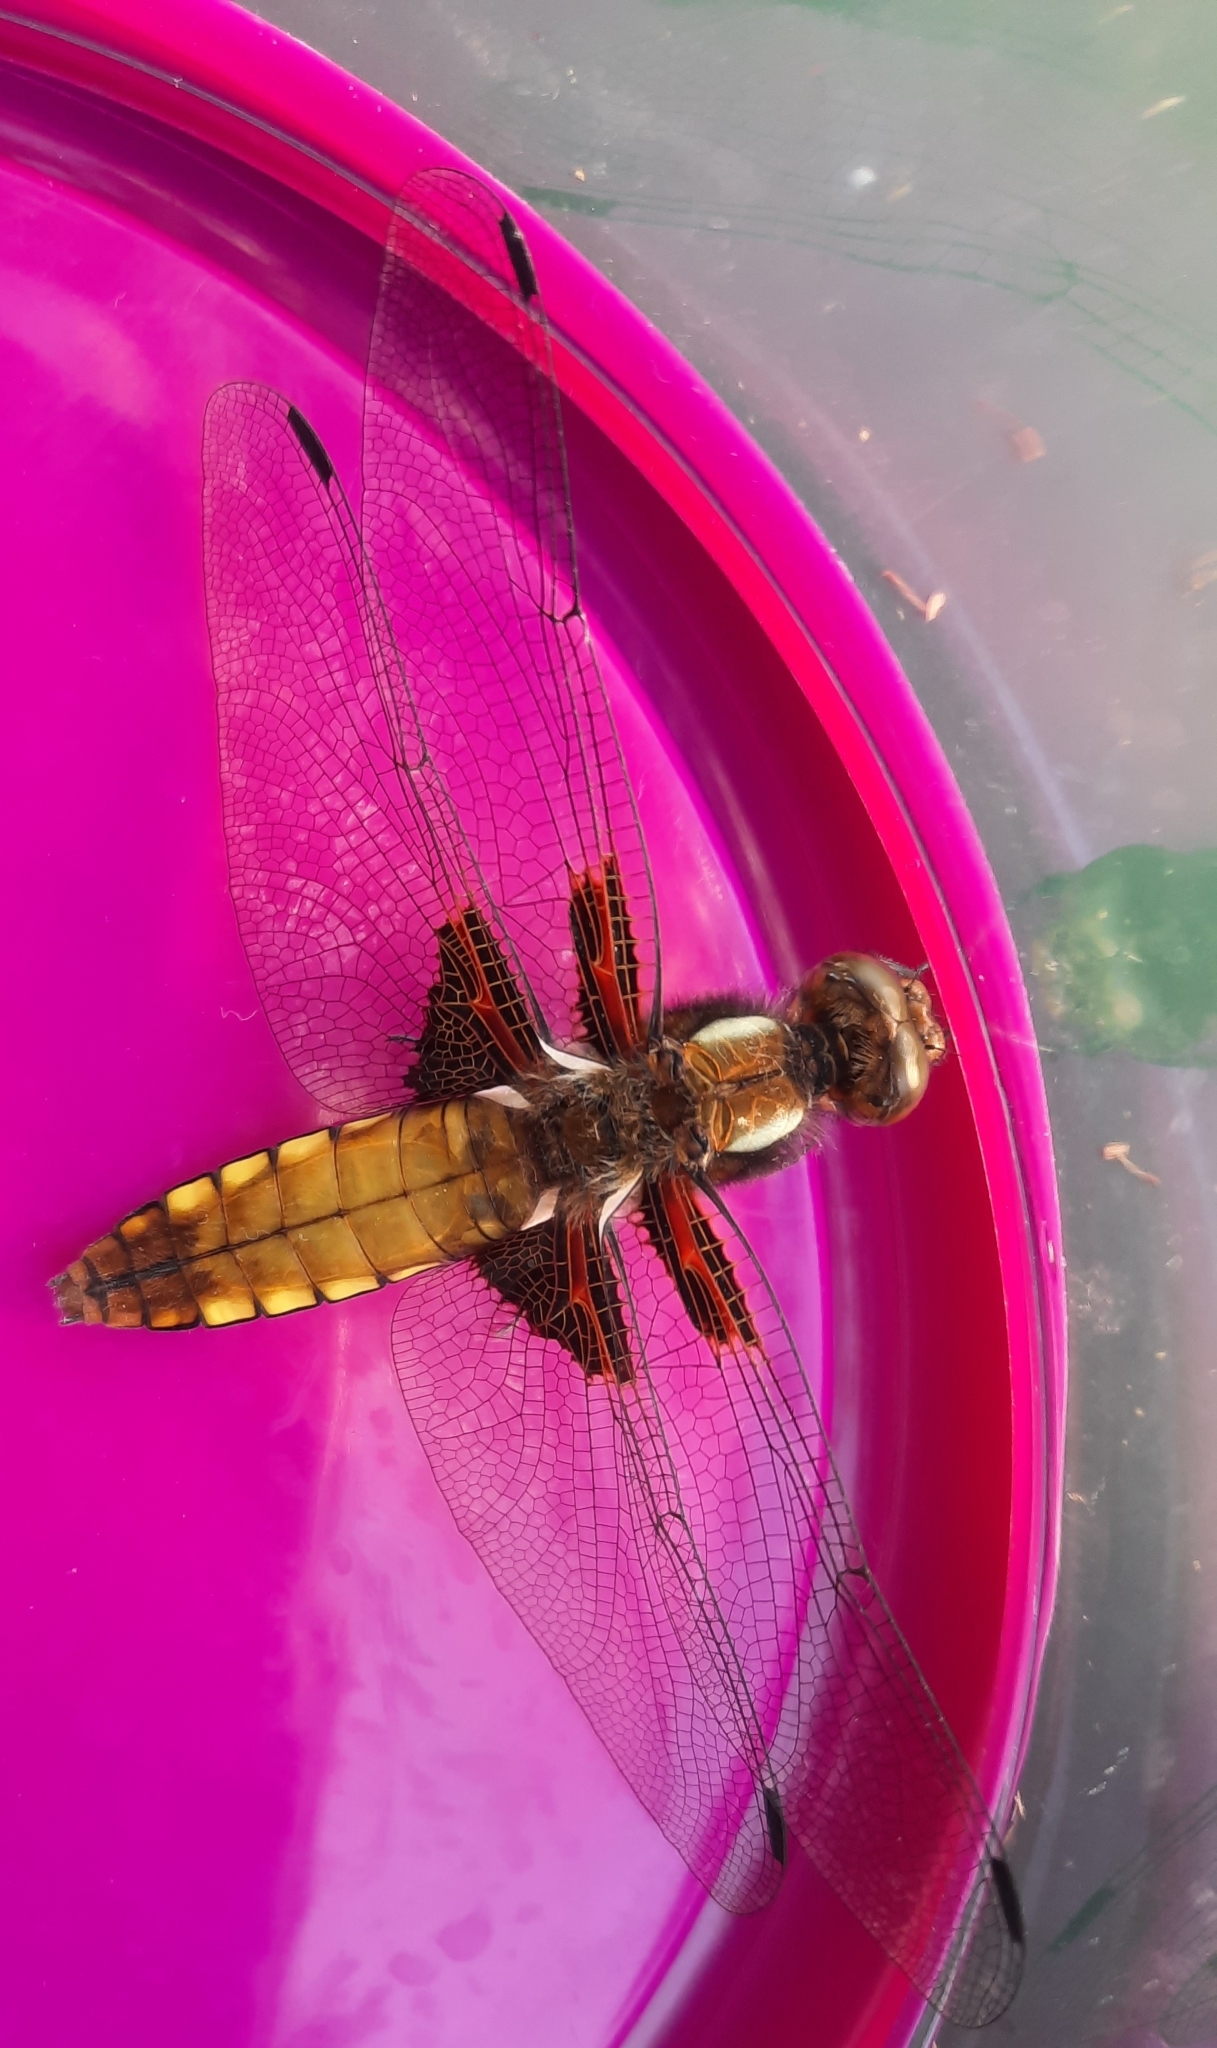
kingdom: Animalia
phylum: Arthropoda
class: Insecta
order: Odonata
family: Libellulidae
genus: Libellula
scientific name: Libellula depressa
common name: Broad-bodied chaser
